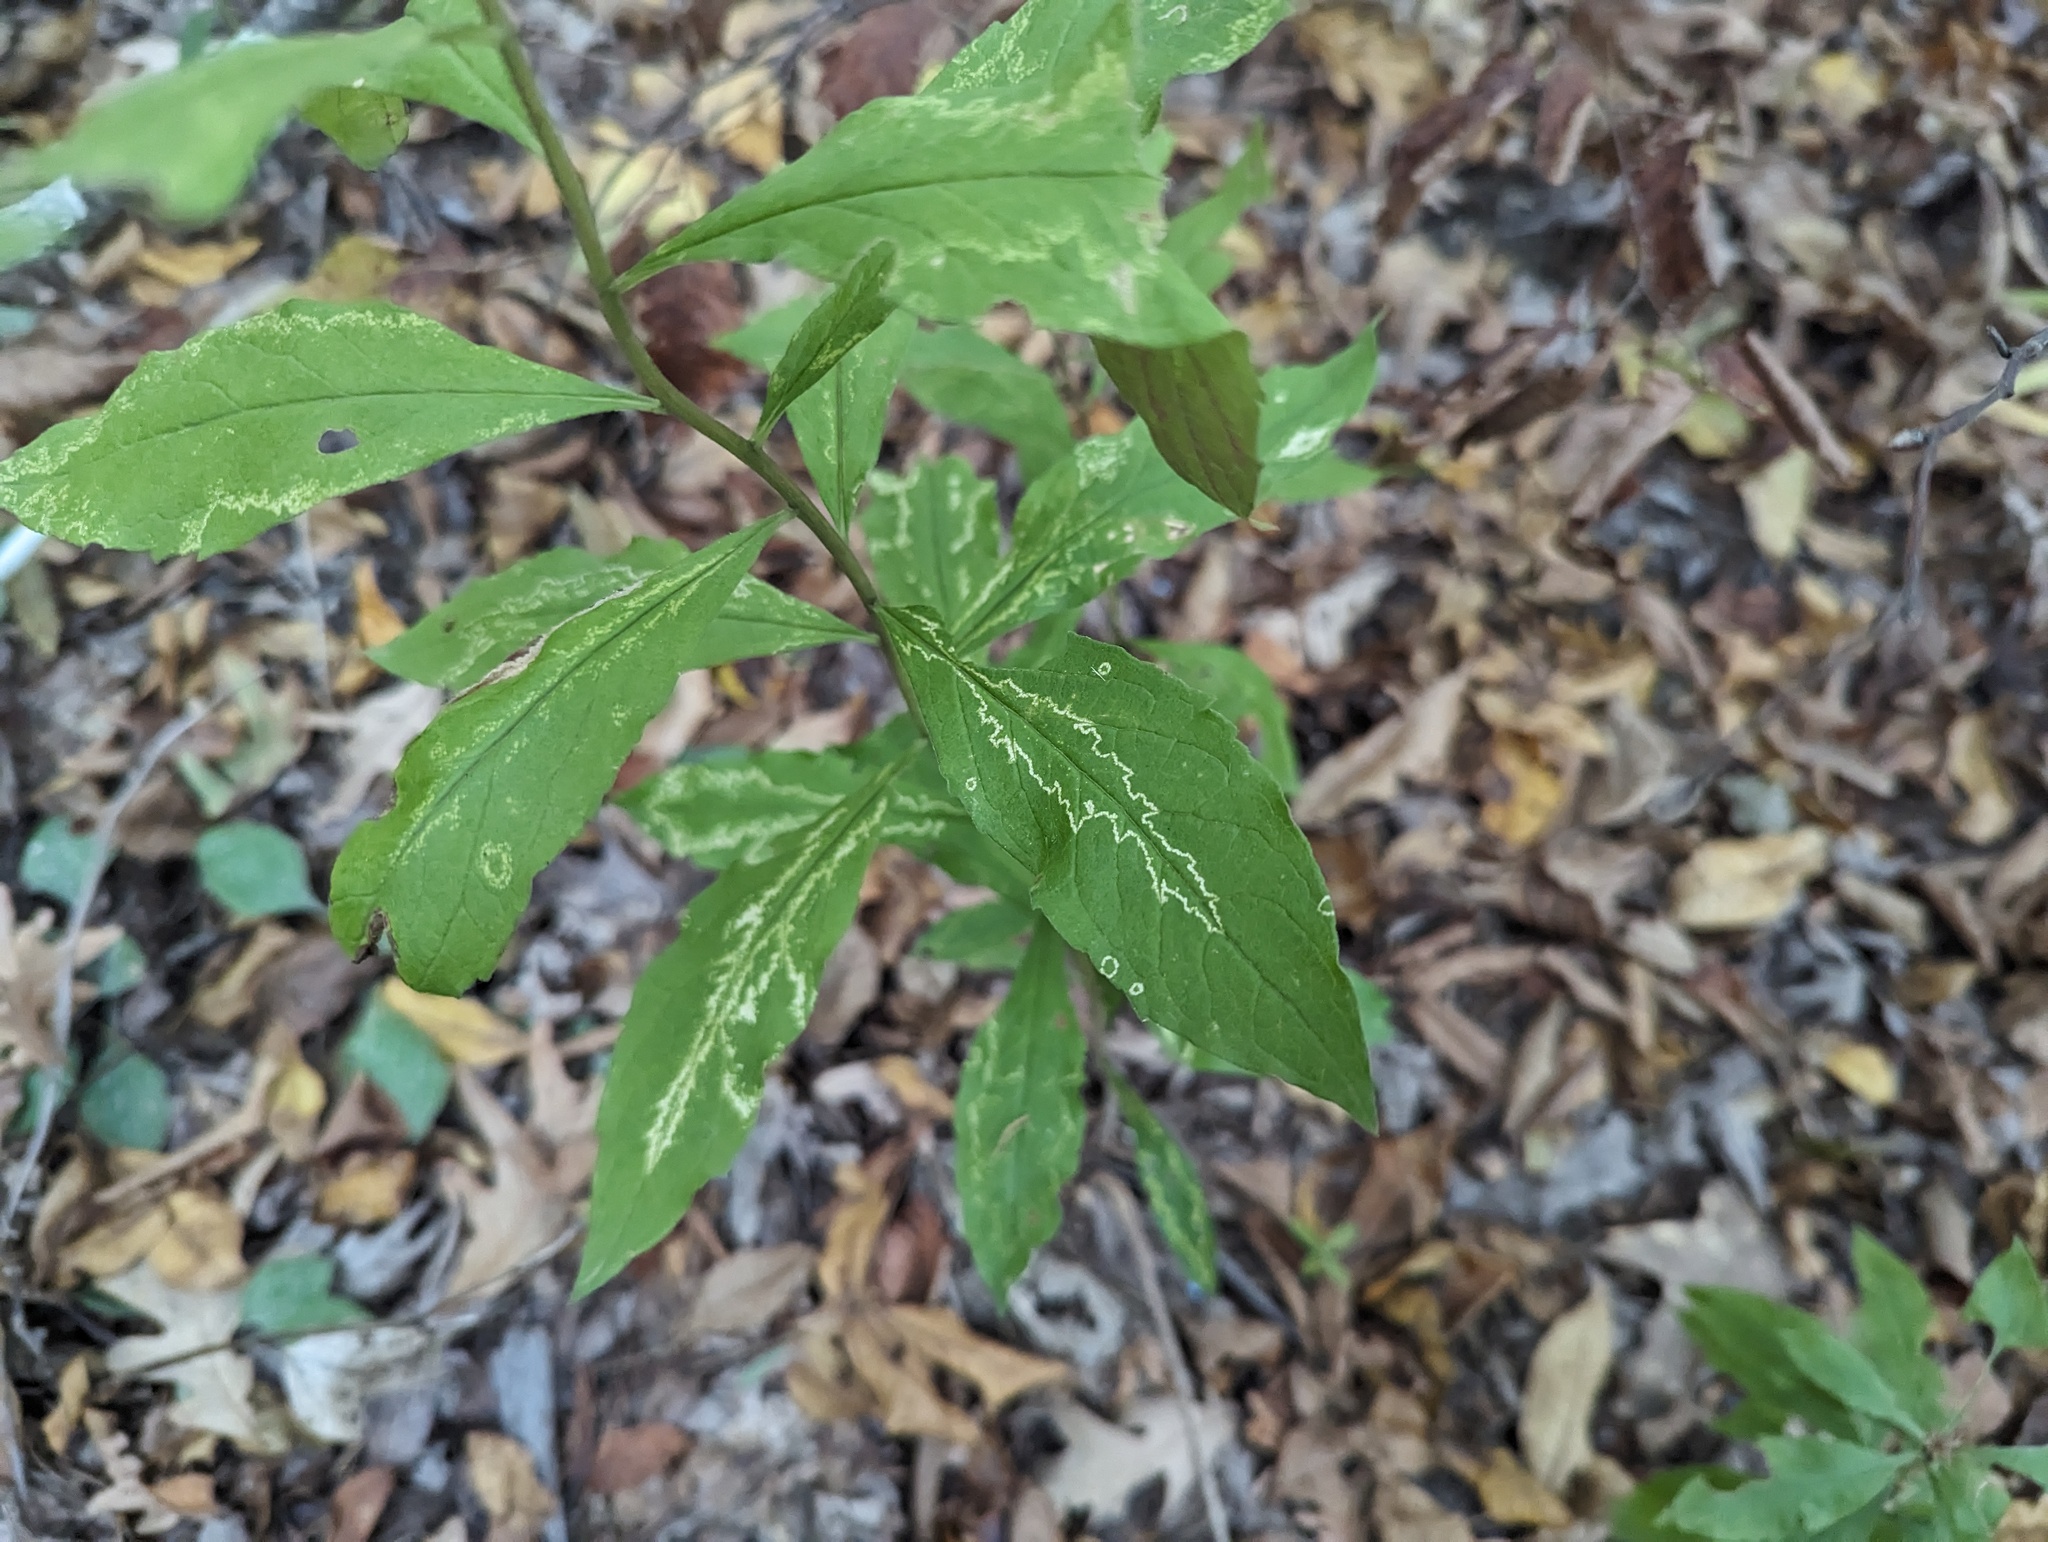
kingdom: Plantae
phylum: Tracheophyta
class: Magnoliopsida
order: Asterales
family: Asteraceae
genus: Solidago
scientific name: Solidago buckleyi
